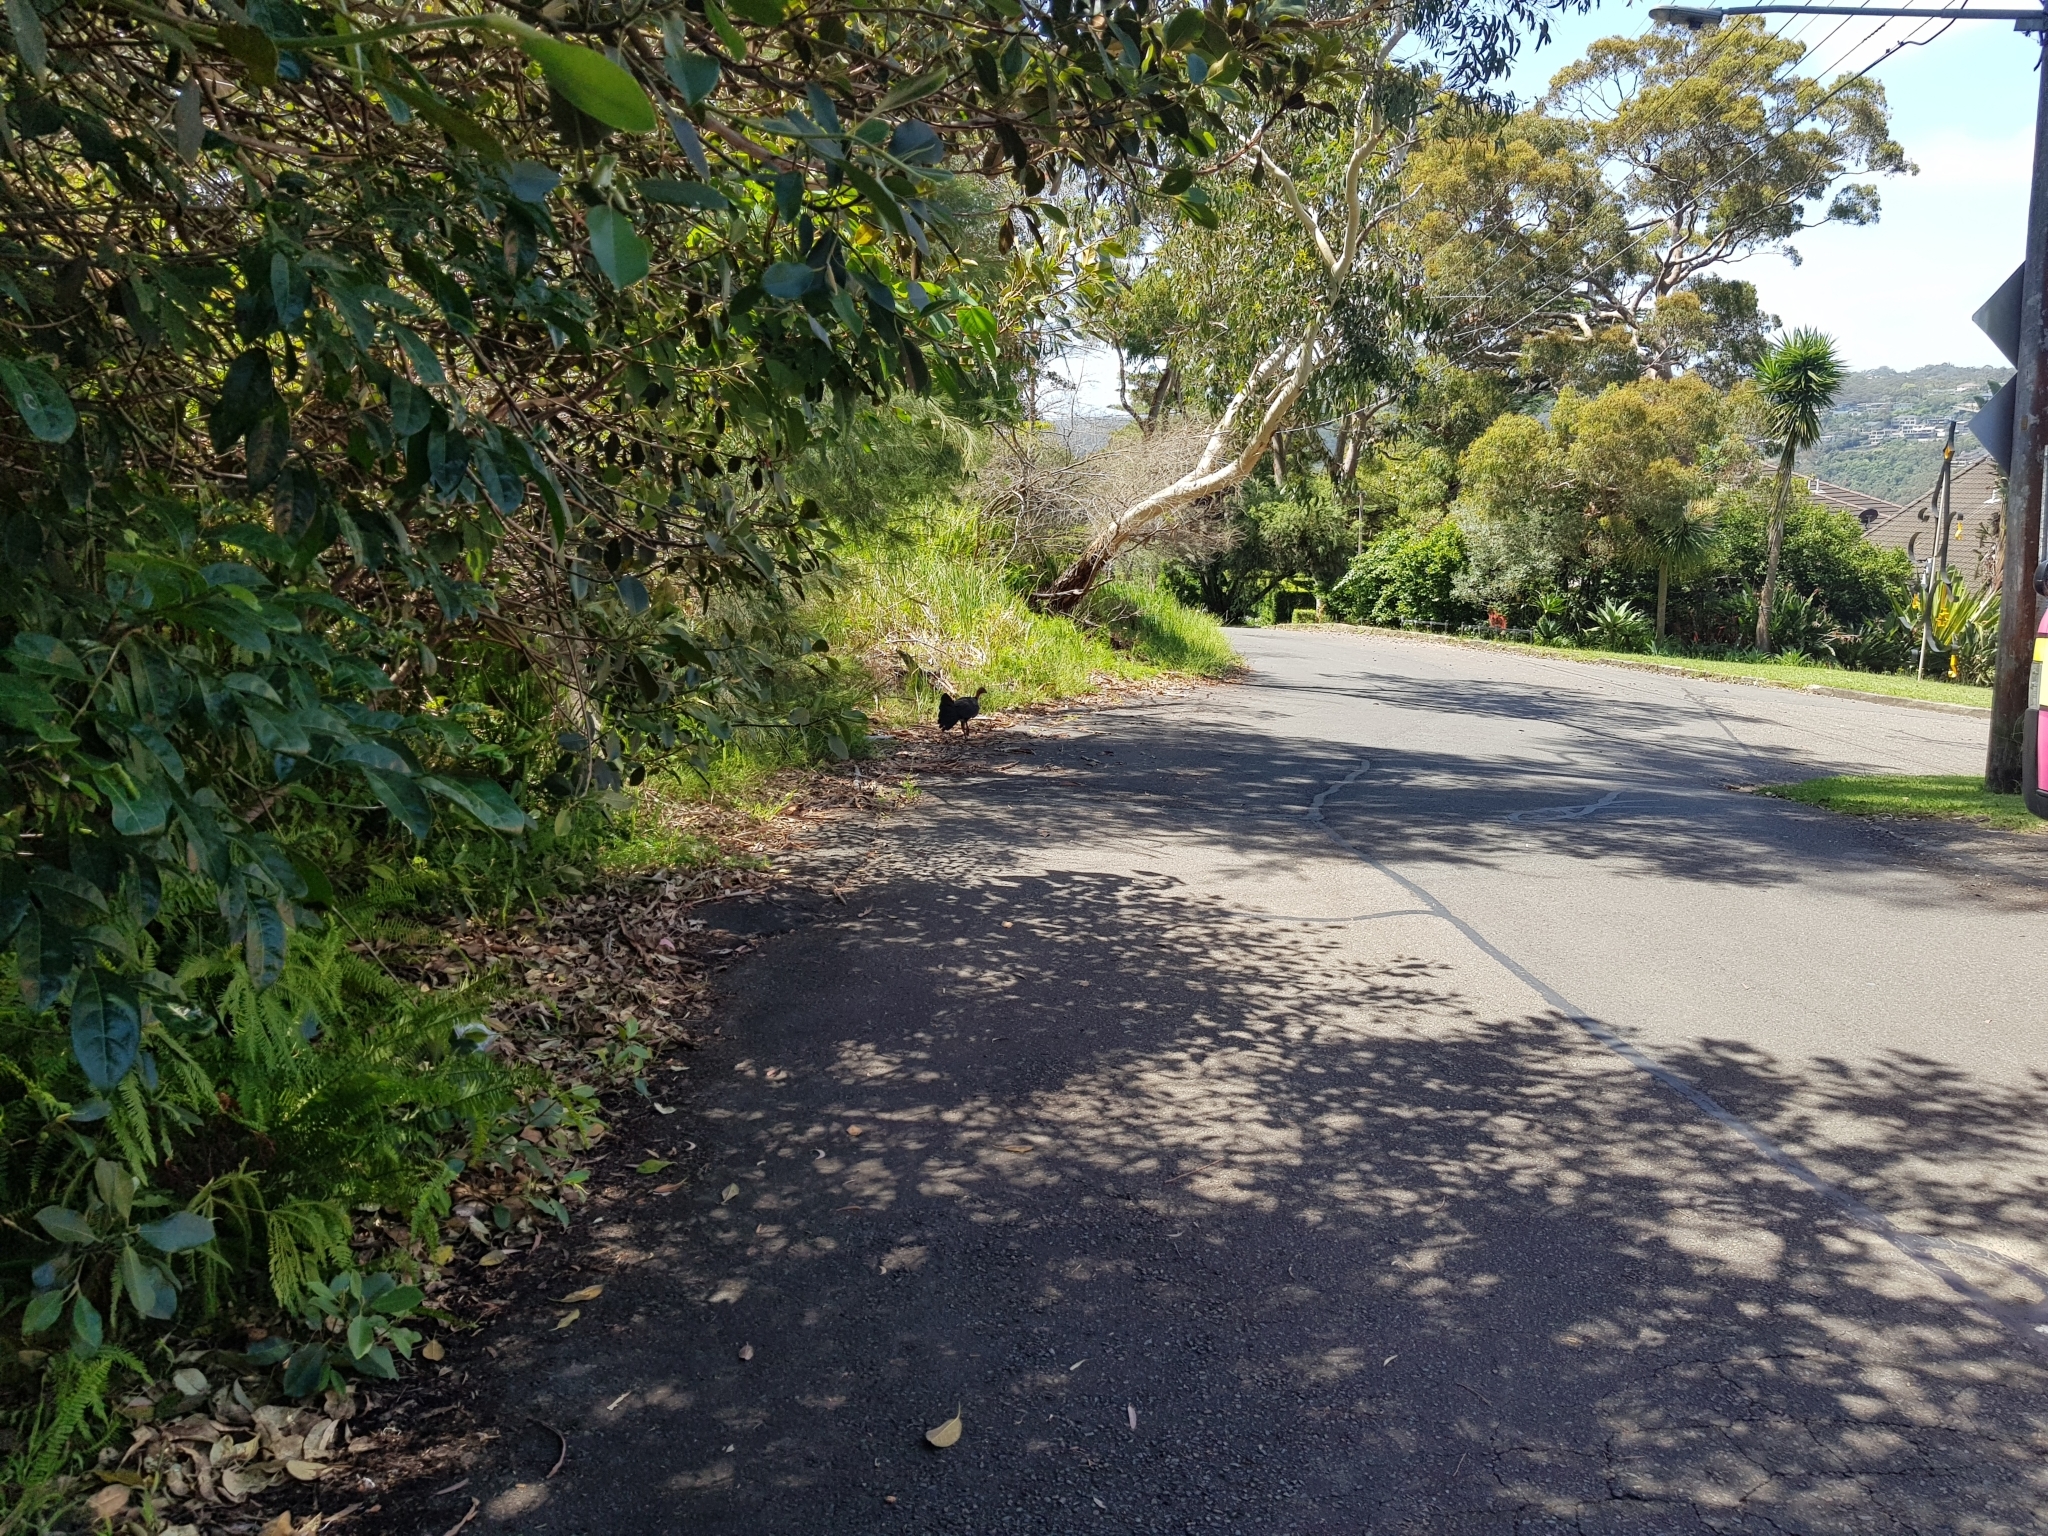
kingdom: Animalia
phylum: Chordata
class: Aves
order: Galliformes
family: Megapodiidae
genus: Alectura
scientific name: Alectura lathami
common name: Australian brushturkey
